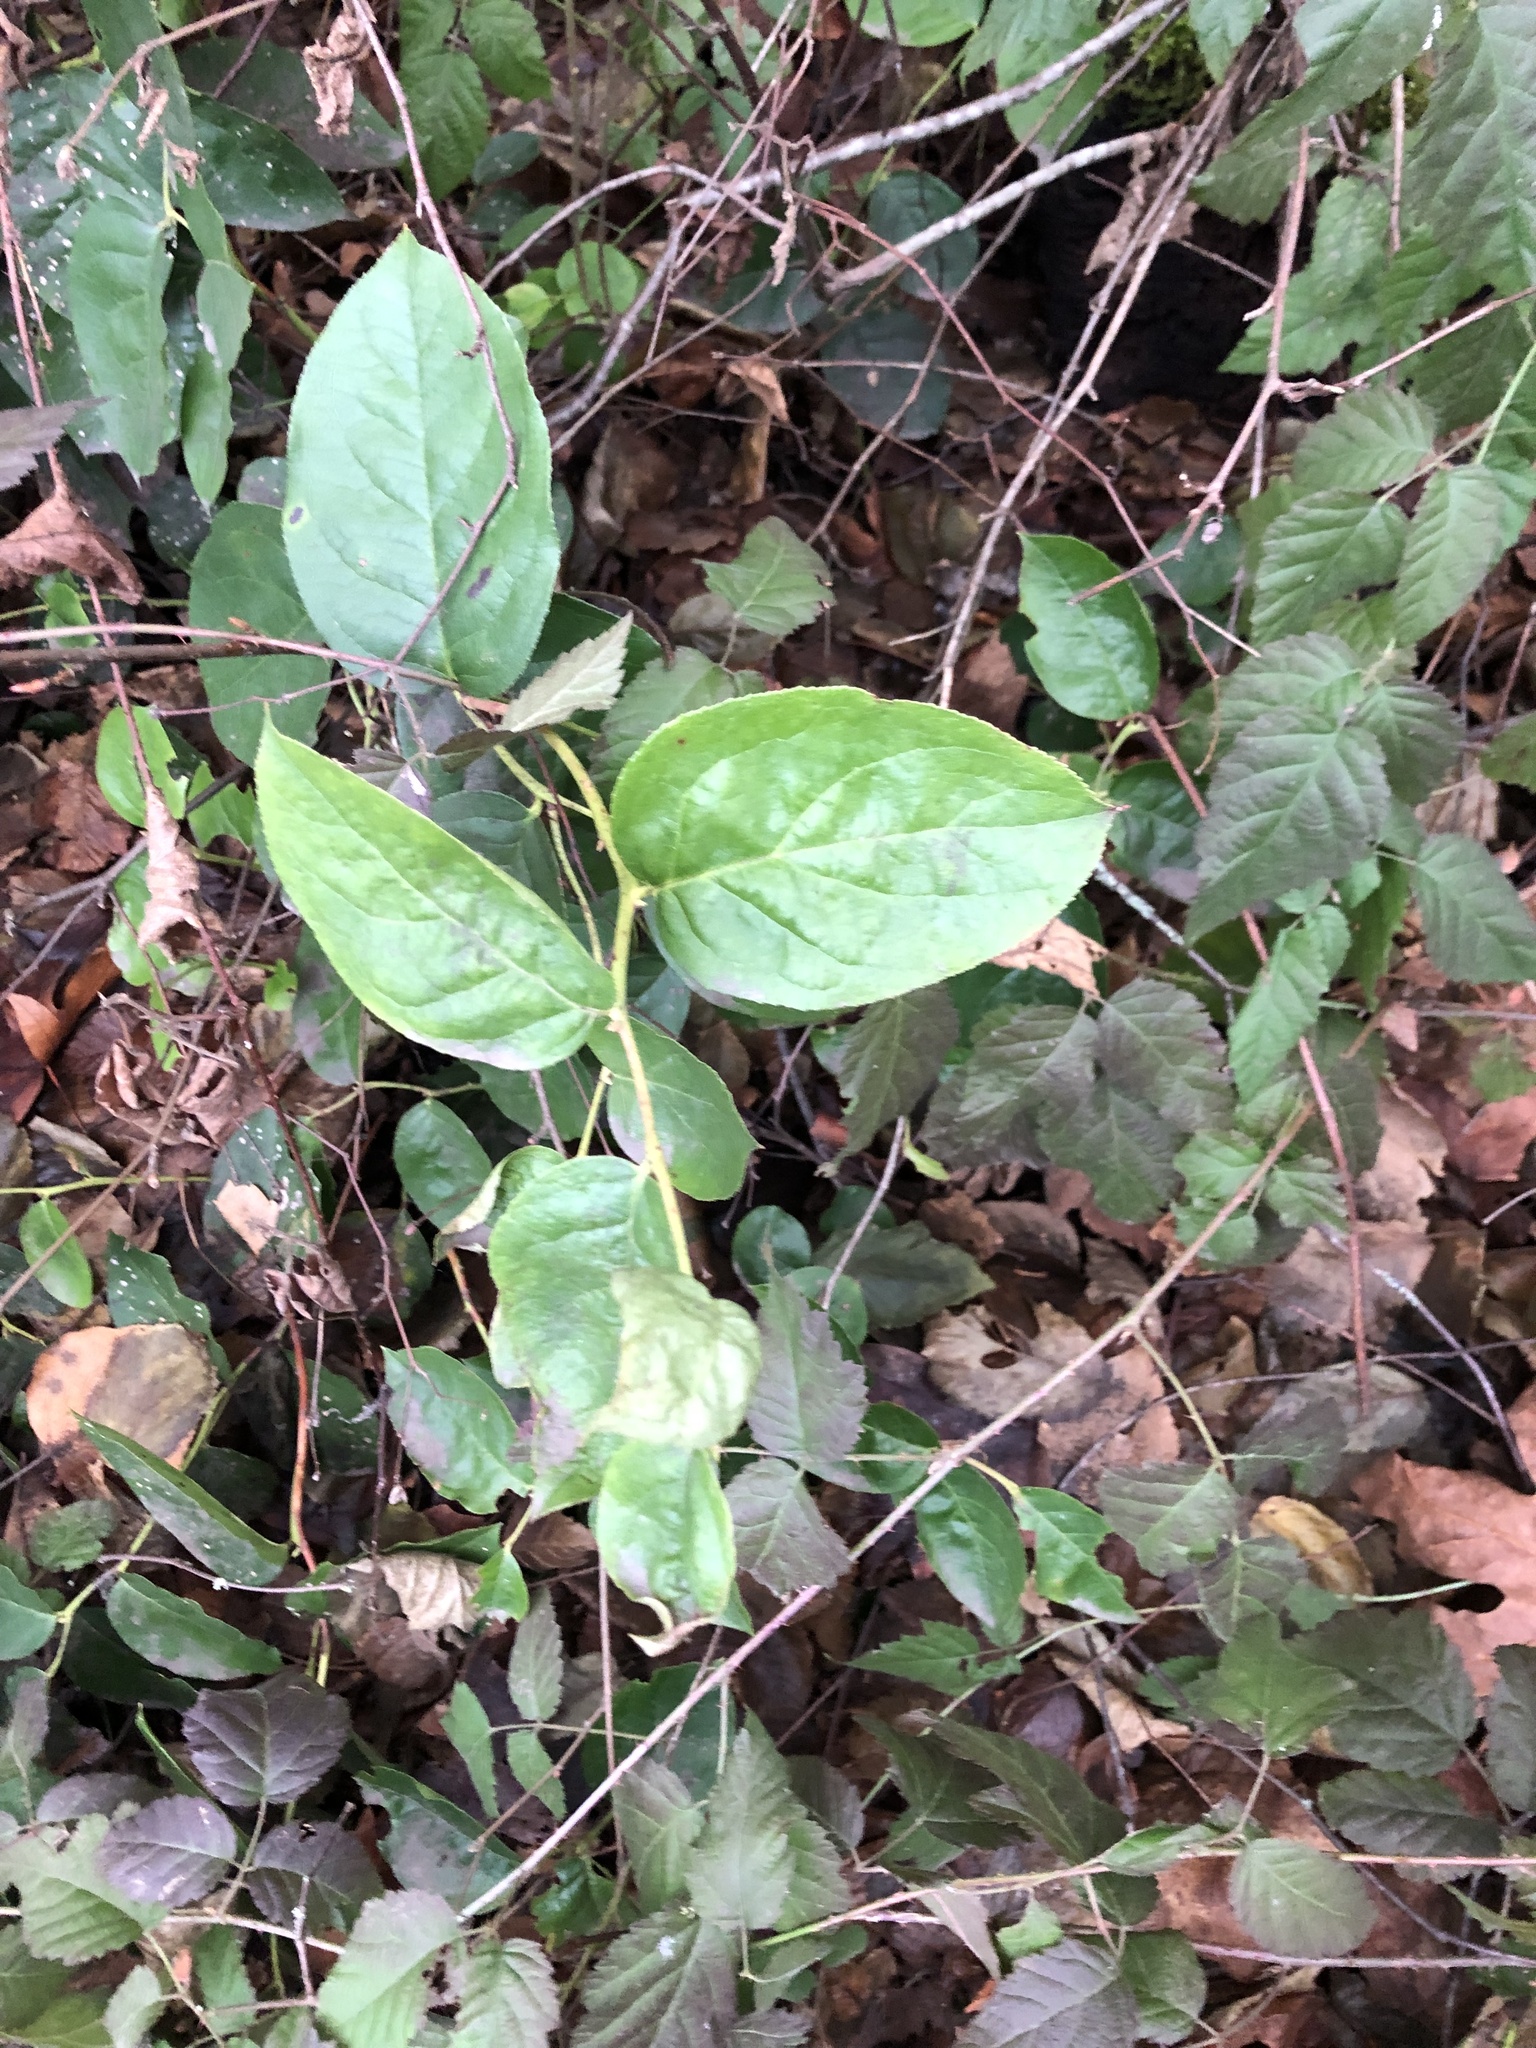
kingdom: Plantae
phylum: Tracheophyta
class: Magnoliopsida
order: Ericales
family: Ericaceae
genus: Gaultheria
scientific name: Gaultheria shallon
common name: Shallon
